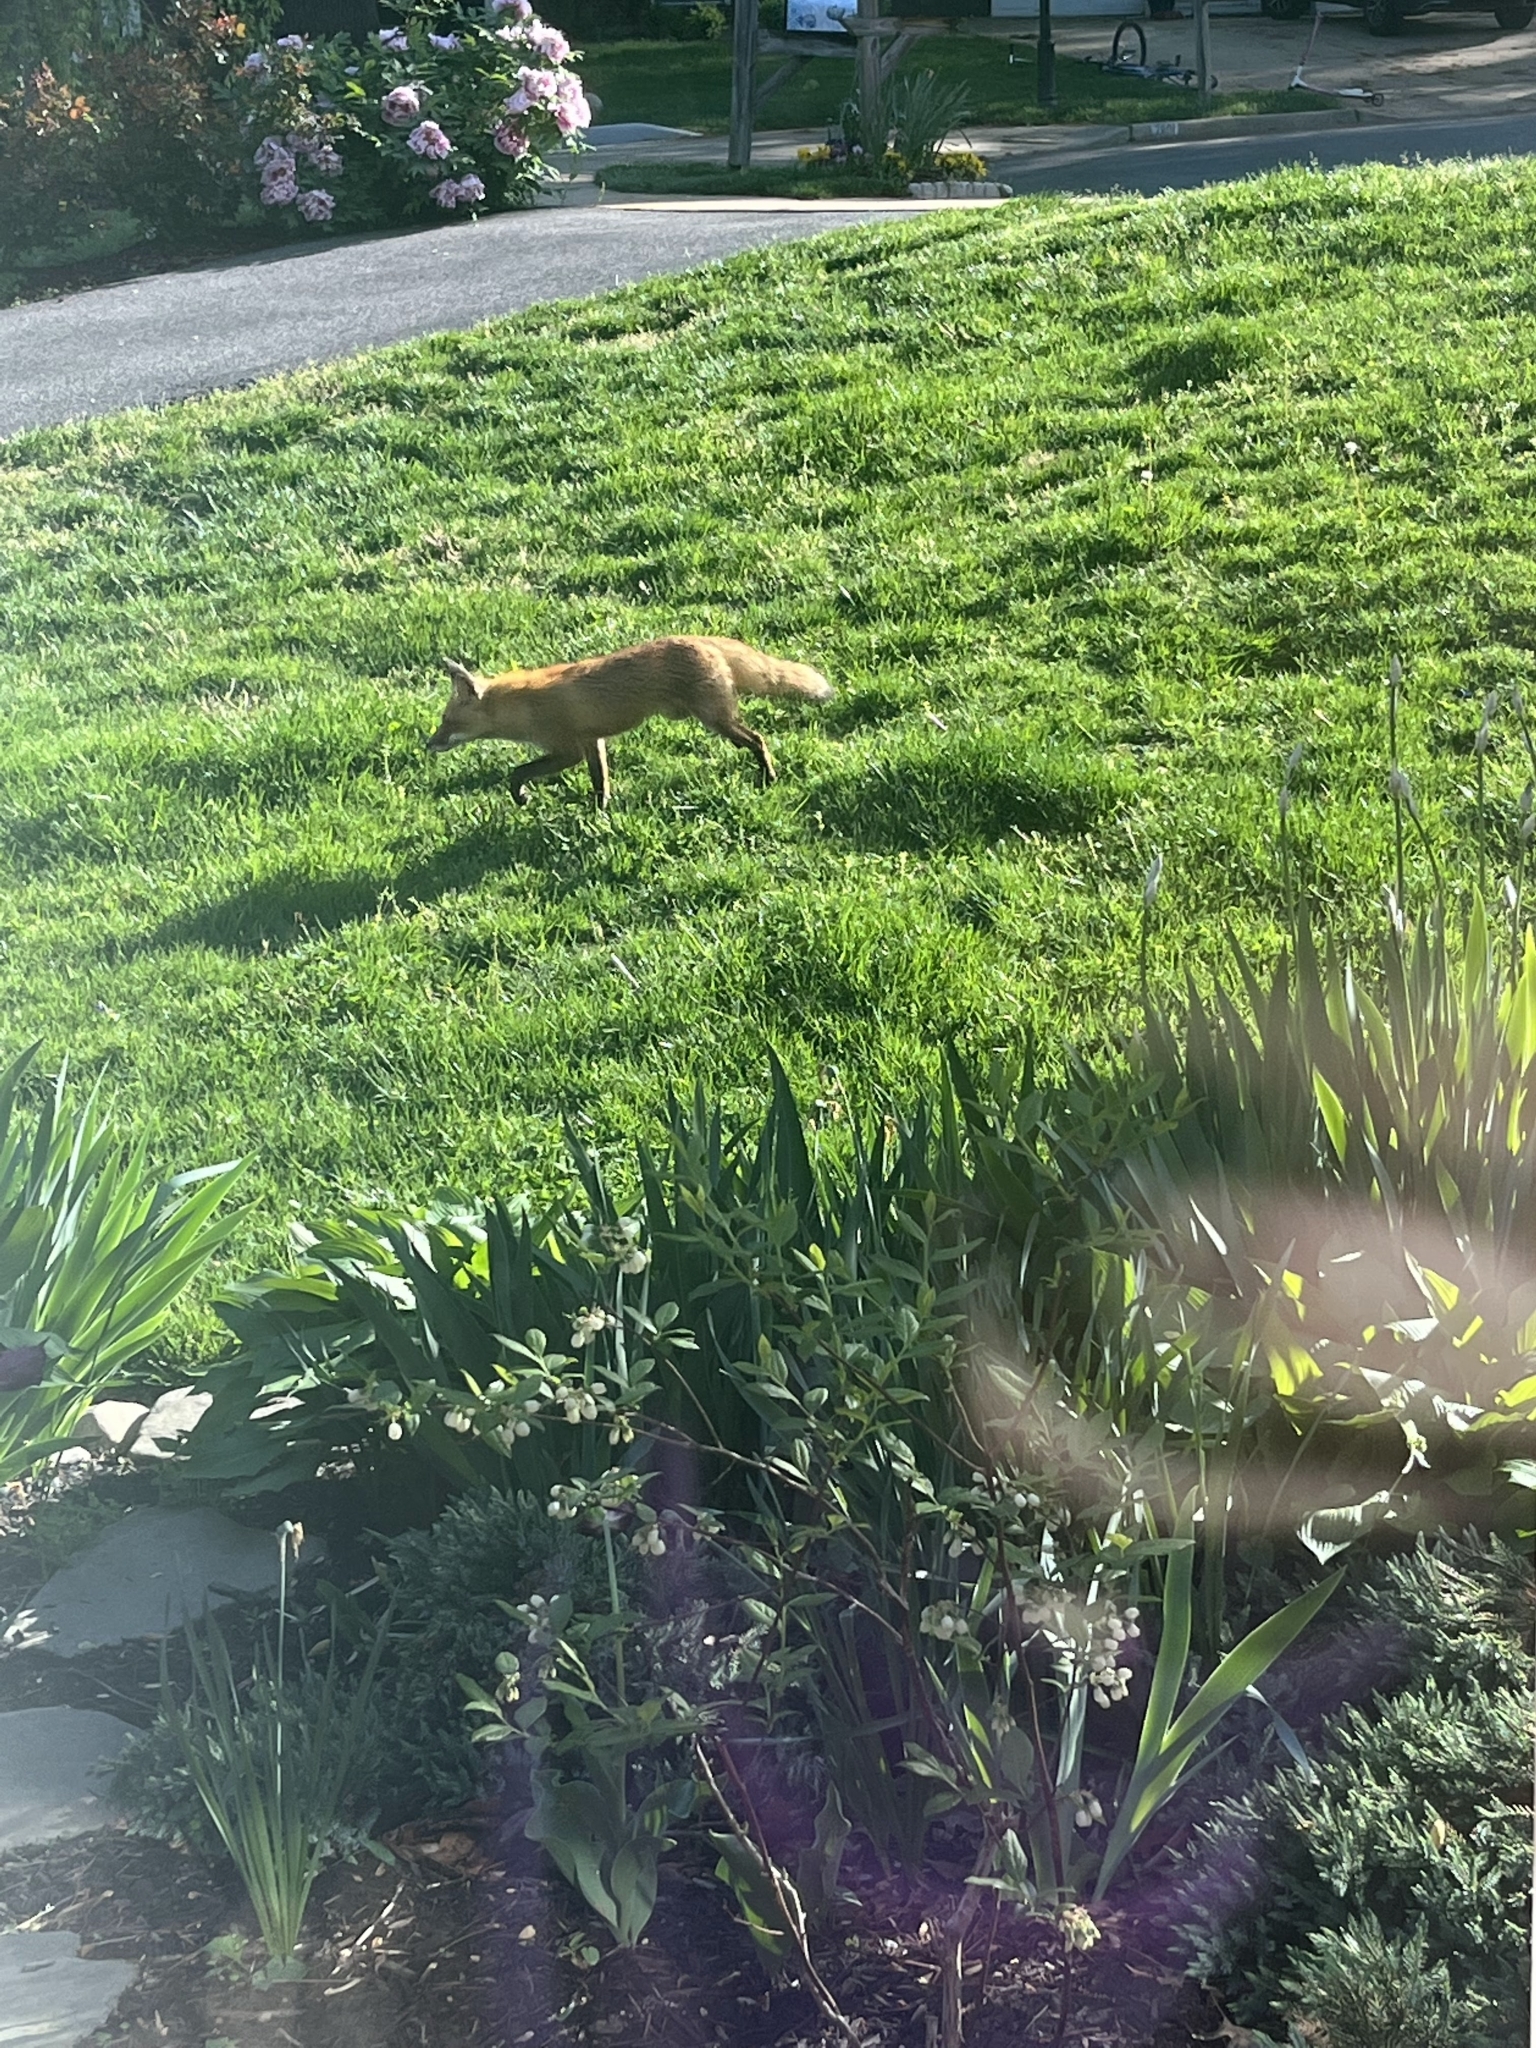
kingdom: Animalia
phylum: Chordata
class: Mammalia
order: Carnivora
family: Canidae
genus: Vulpes
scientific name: Vulpes vulpes
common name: Red fox
